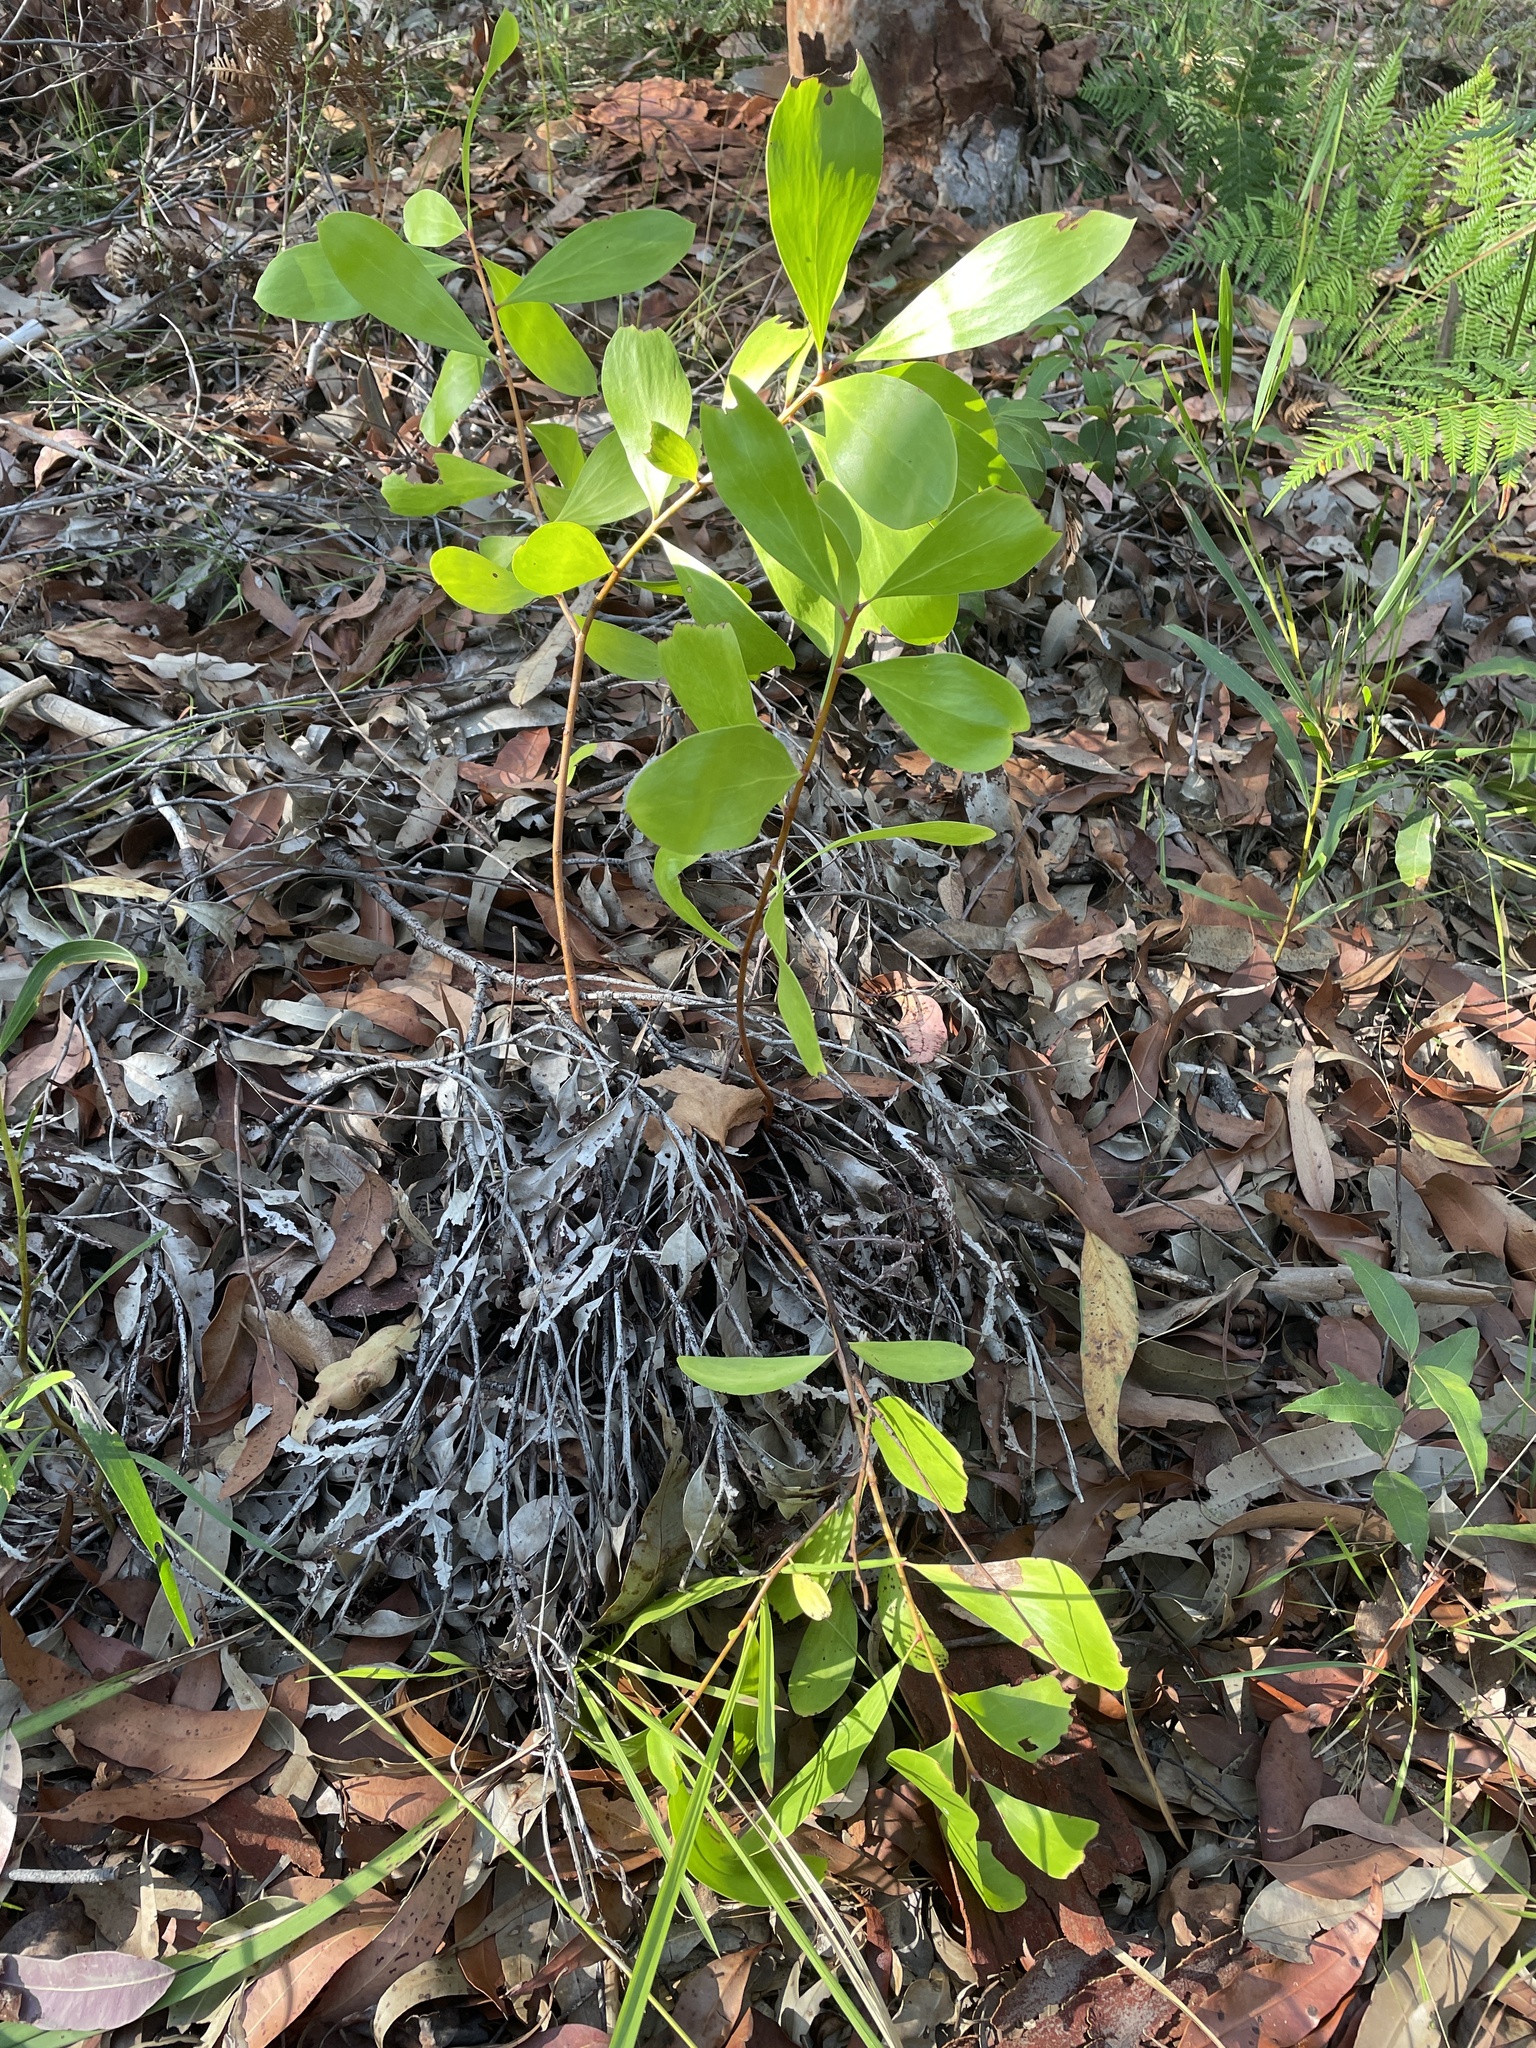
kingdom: Plantae
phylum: Tracheophyta
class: Magnoliopsida
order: Proteales
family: Proteaceae
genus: Persoonia
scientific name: Persoonia levis
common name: Smooth geebung
